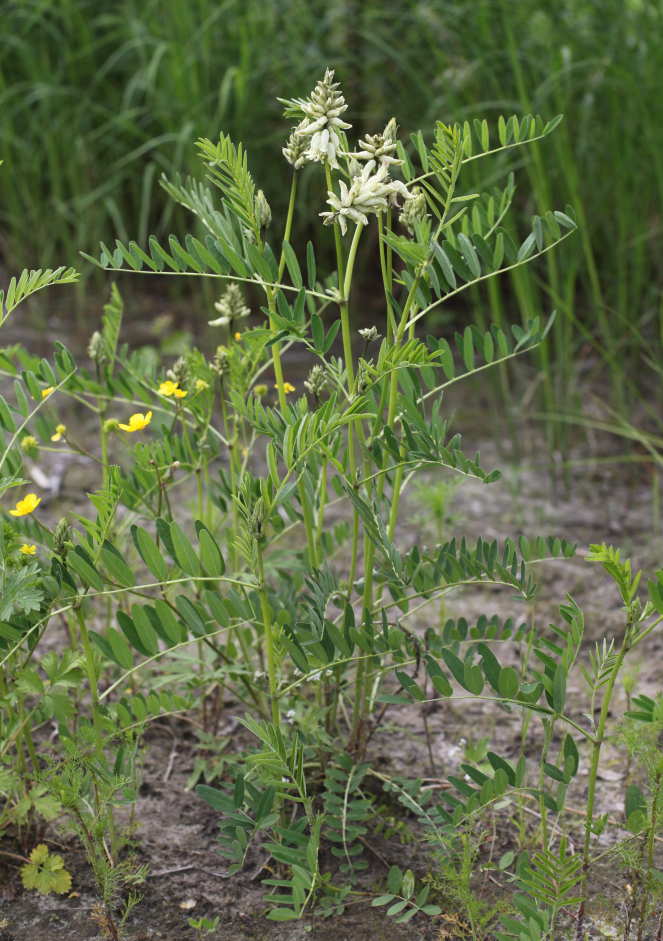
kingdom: Plantae
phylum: Tracheophyta
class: Magnoliopsida
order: Fabales
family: Fabaceae
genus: Astragalus
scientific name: Astragalus uliginosus
